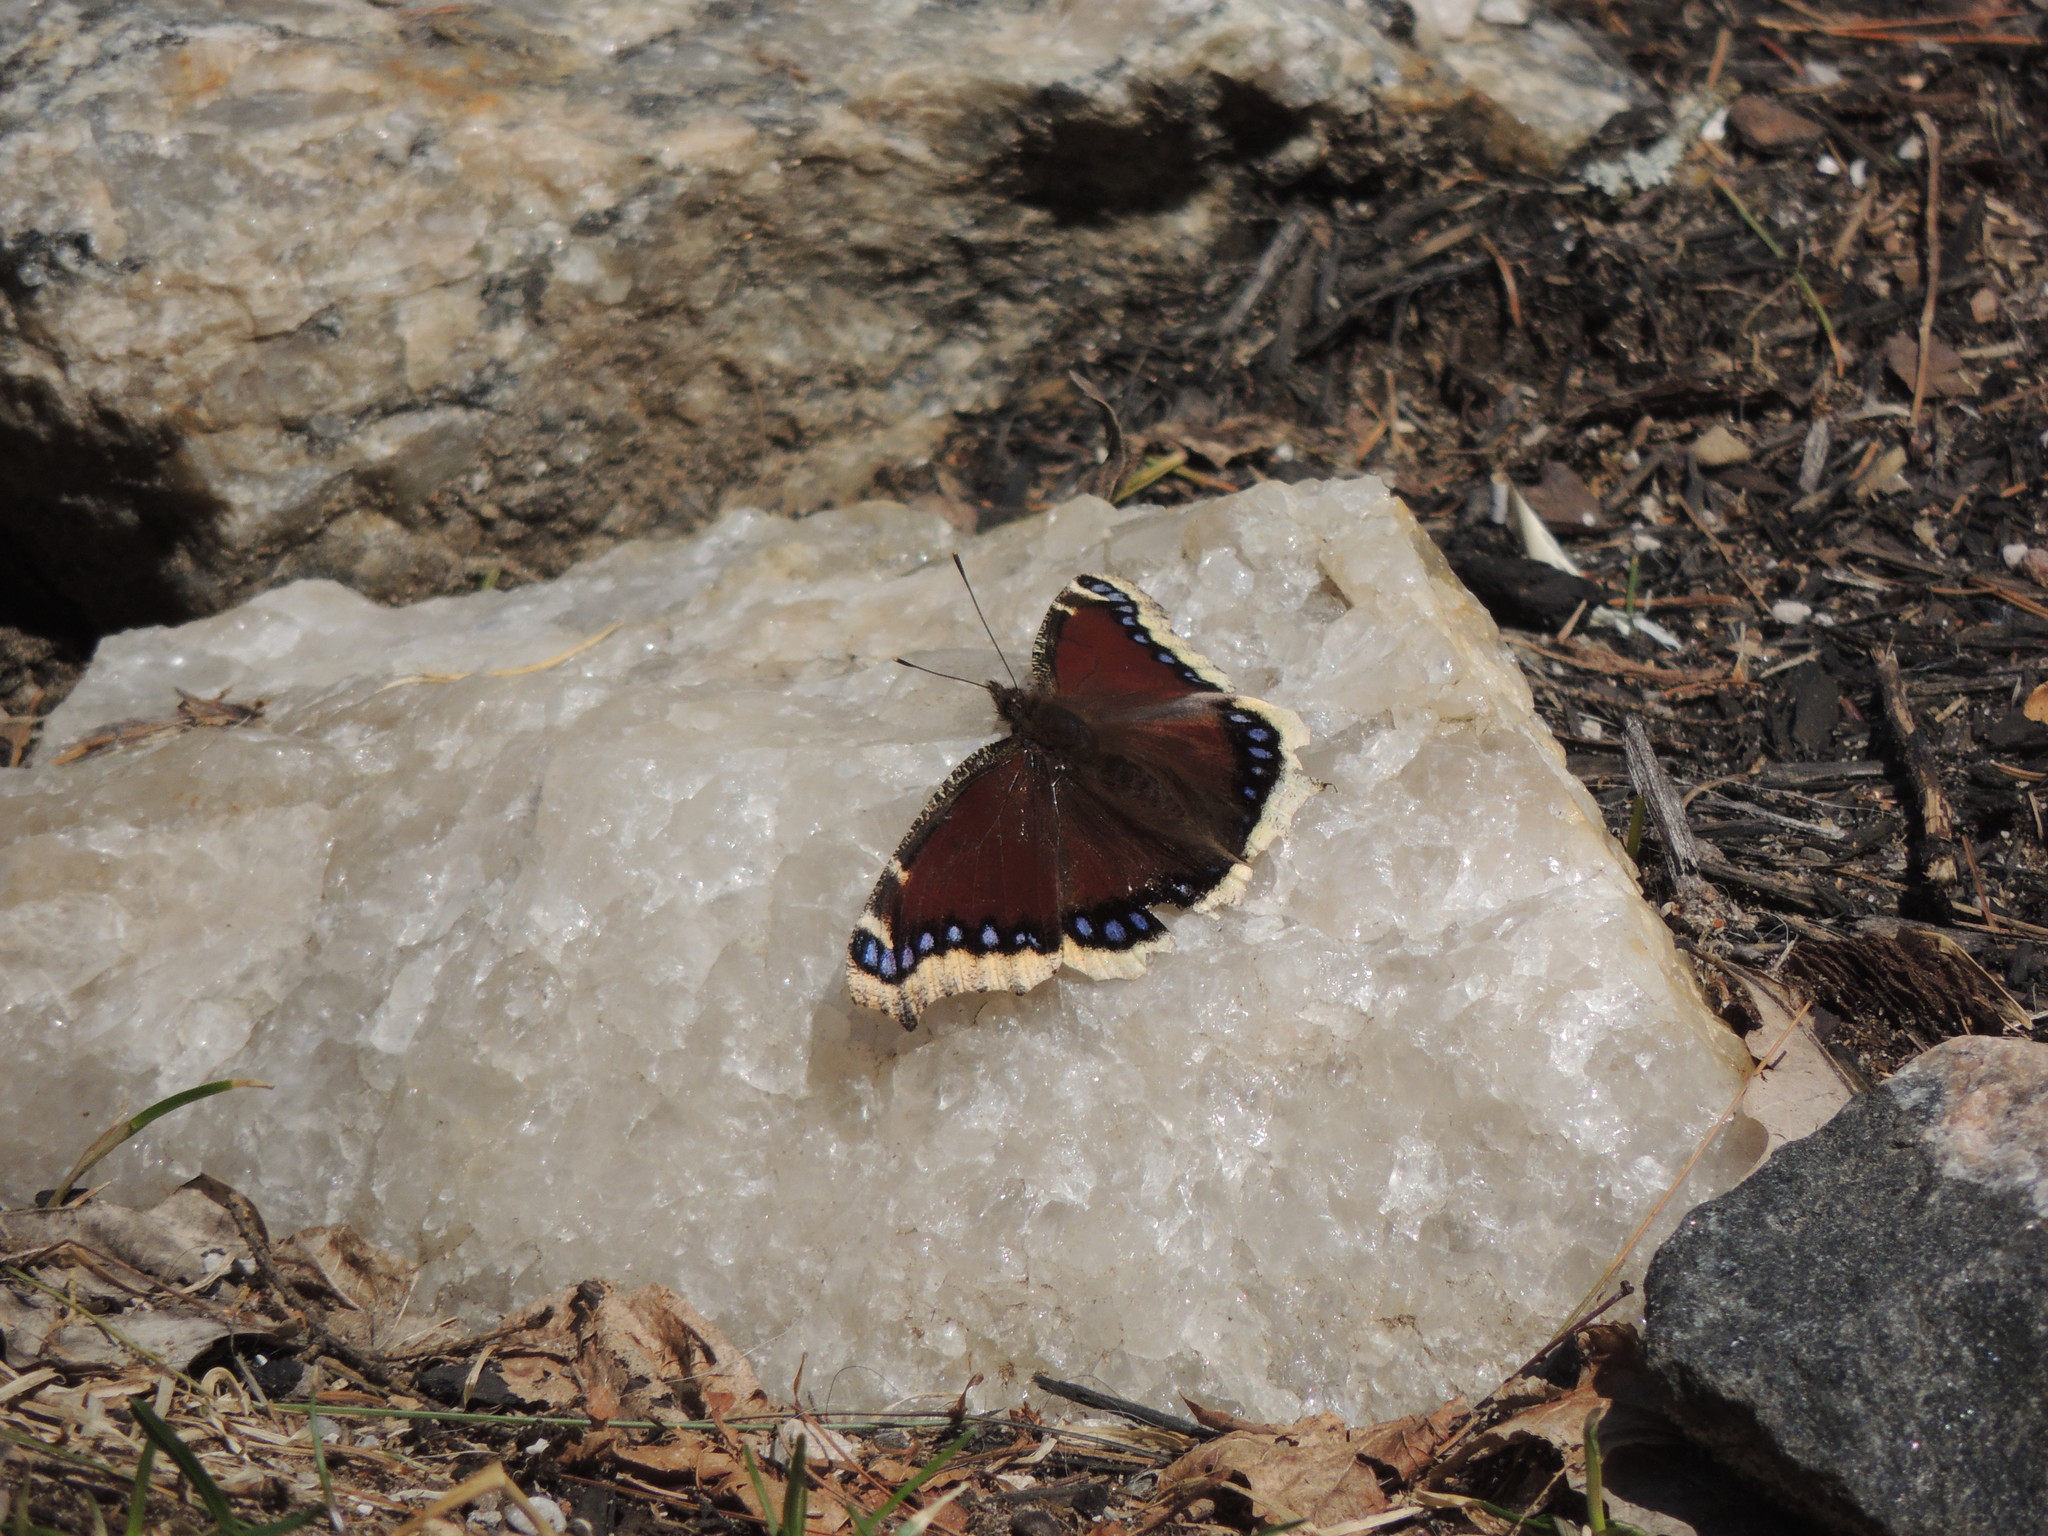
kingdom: Animalia
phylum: Arthropoda
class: Insecta
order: Lepidoptera
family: Nymphalidae
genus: Nymphalis
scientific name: Nymphalis antiopa
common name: Camberwell beauty
